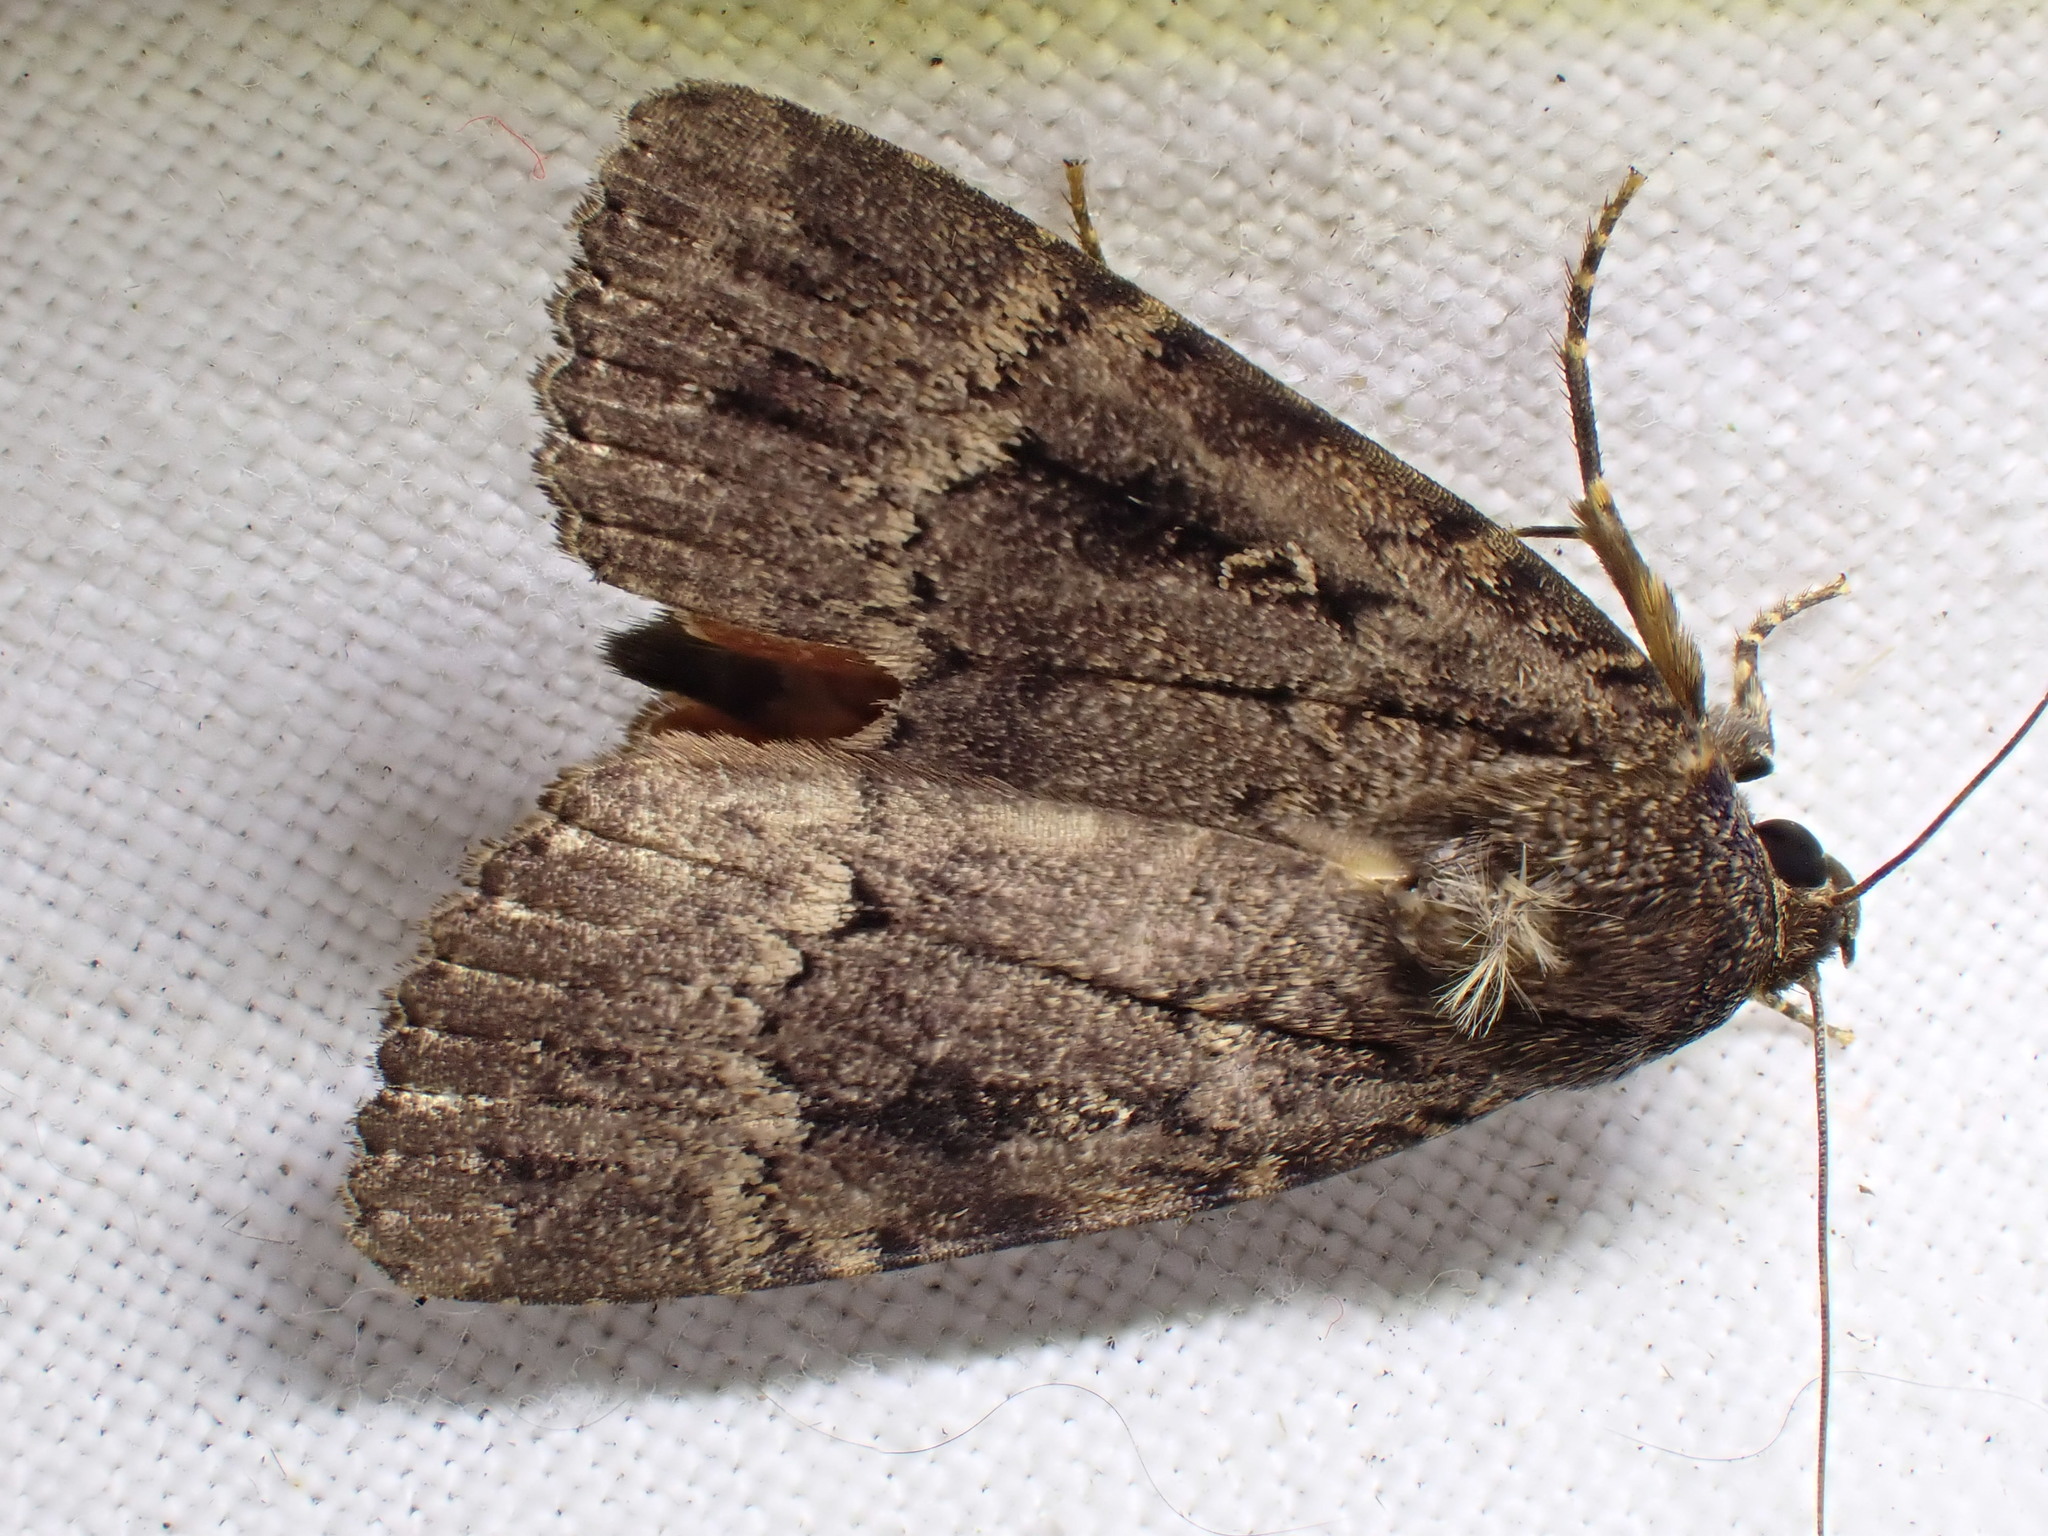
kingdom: Animalia
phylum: Arthropoda
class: Insecta
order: Lepidoptera
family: Noctuidae
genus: Amphipyra
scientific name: Amphipyra pyramidea
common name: Copper underwing
